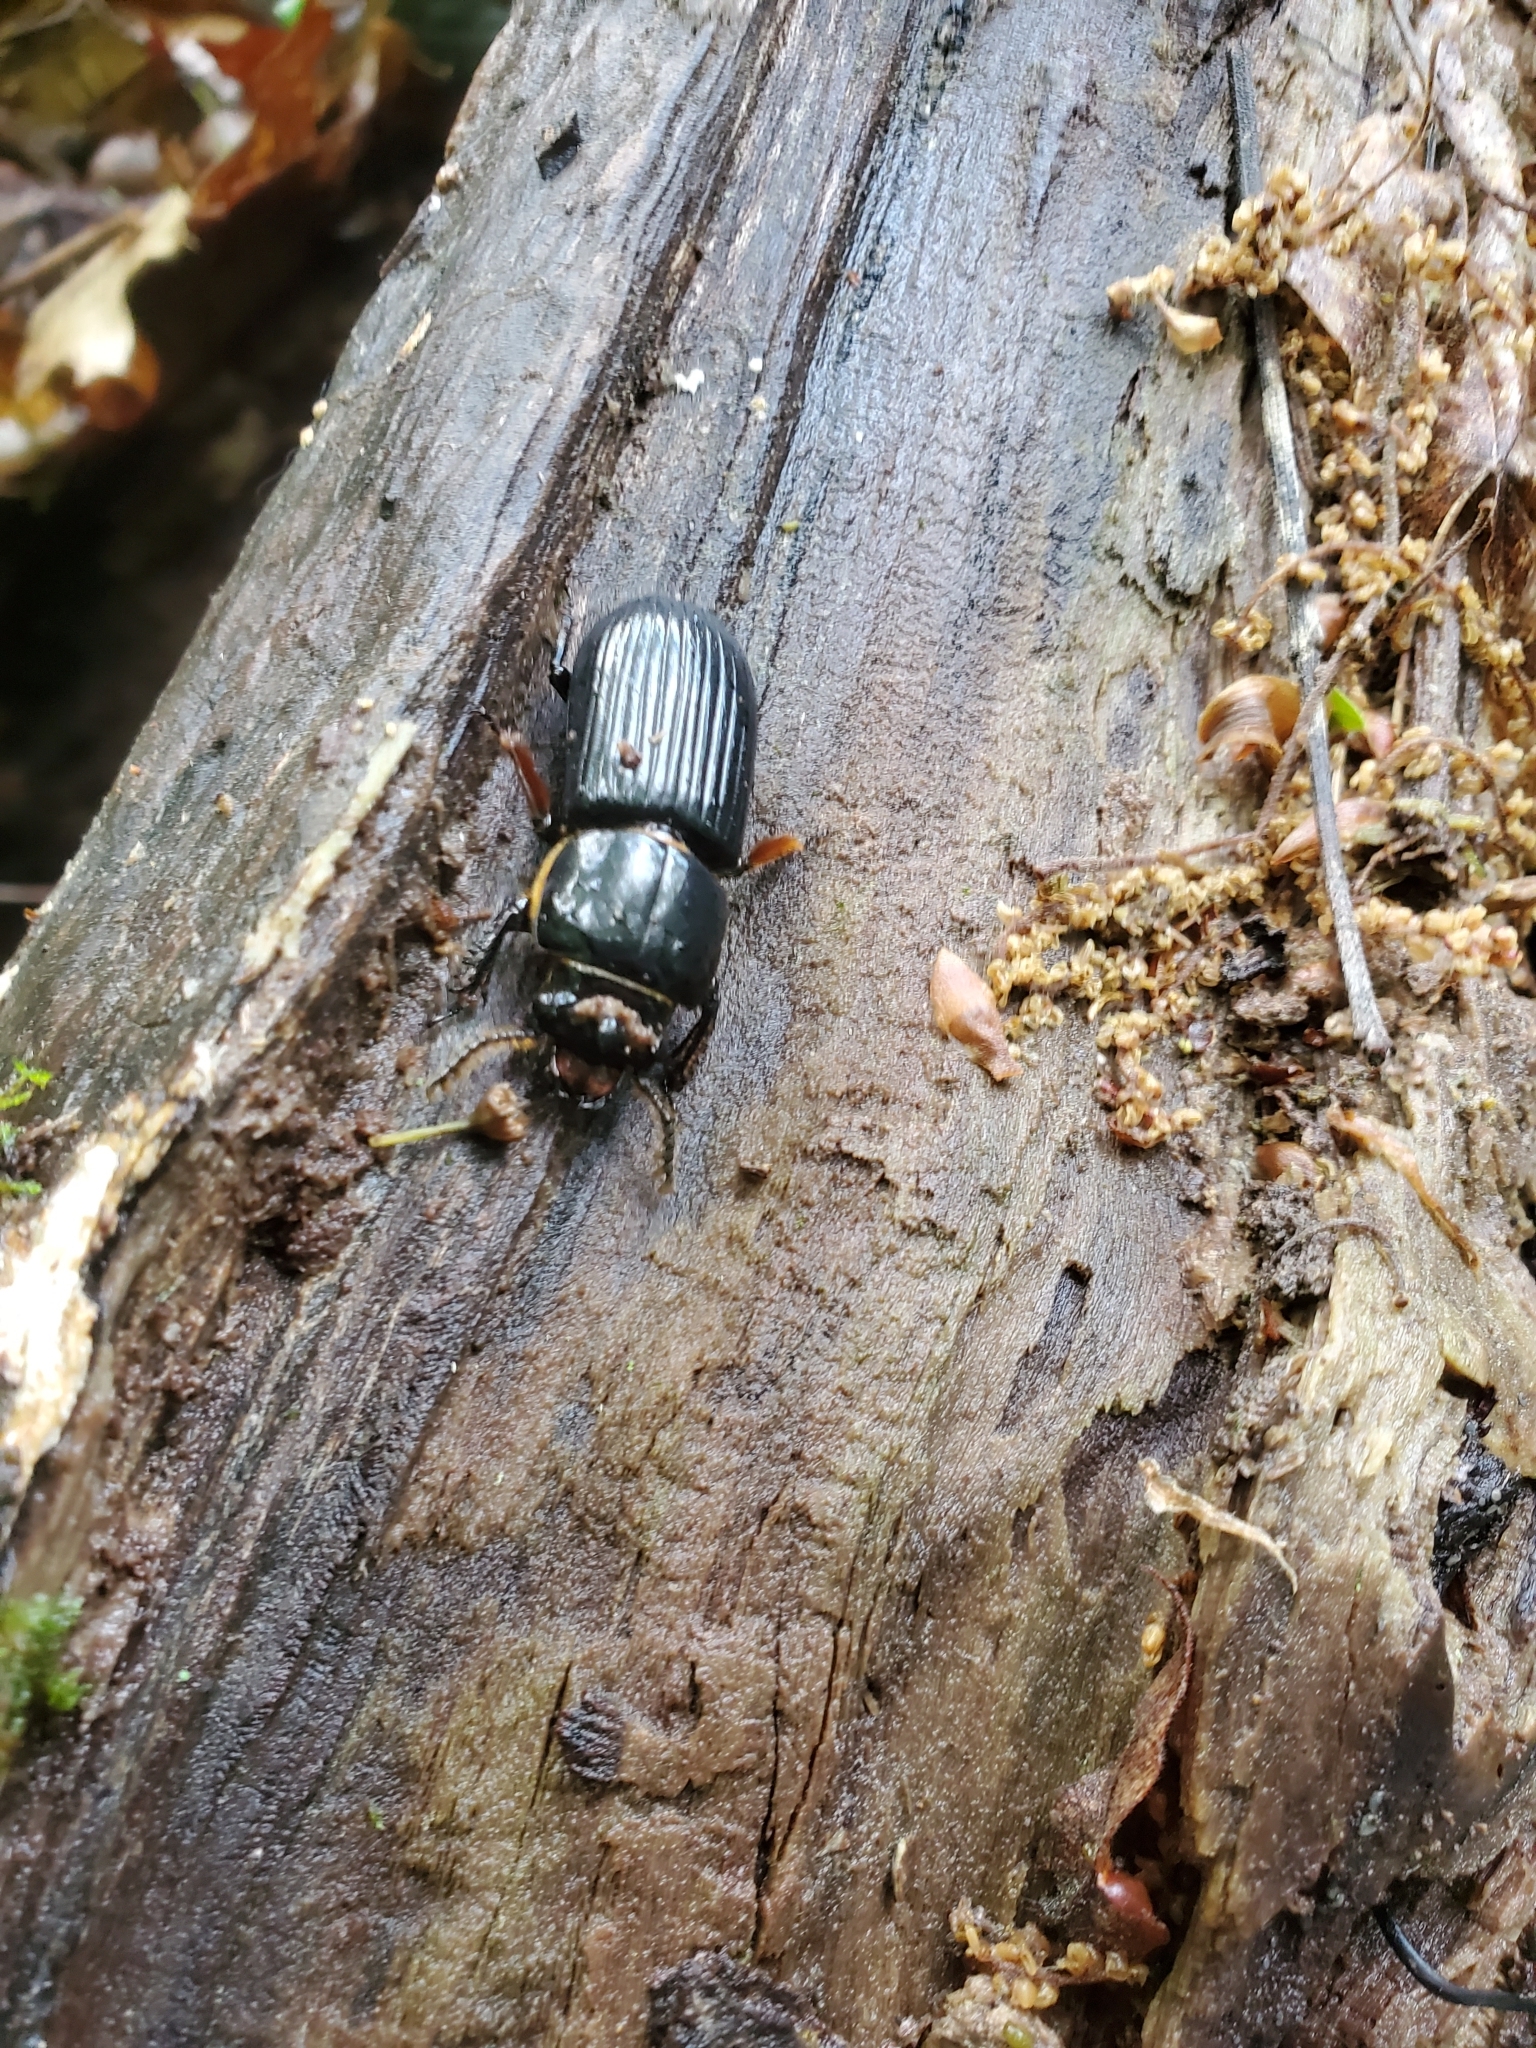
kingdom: Animalia
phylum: Arthropoda
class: Insecta
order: Coleoptera
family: Passalidae
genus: Odontotaenius
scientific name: Odontotaenius disjunctus
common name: Patent leather beetle
